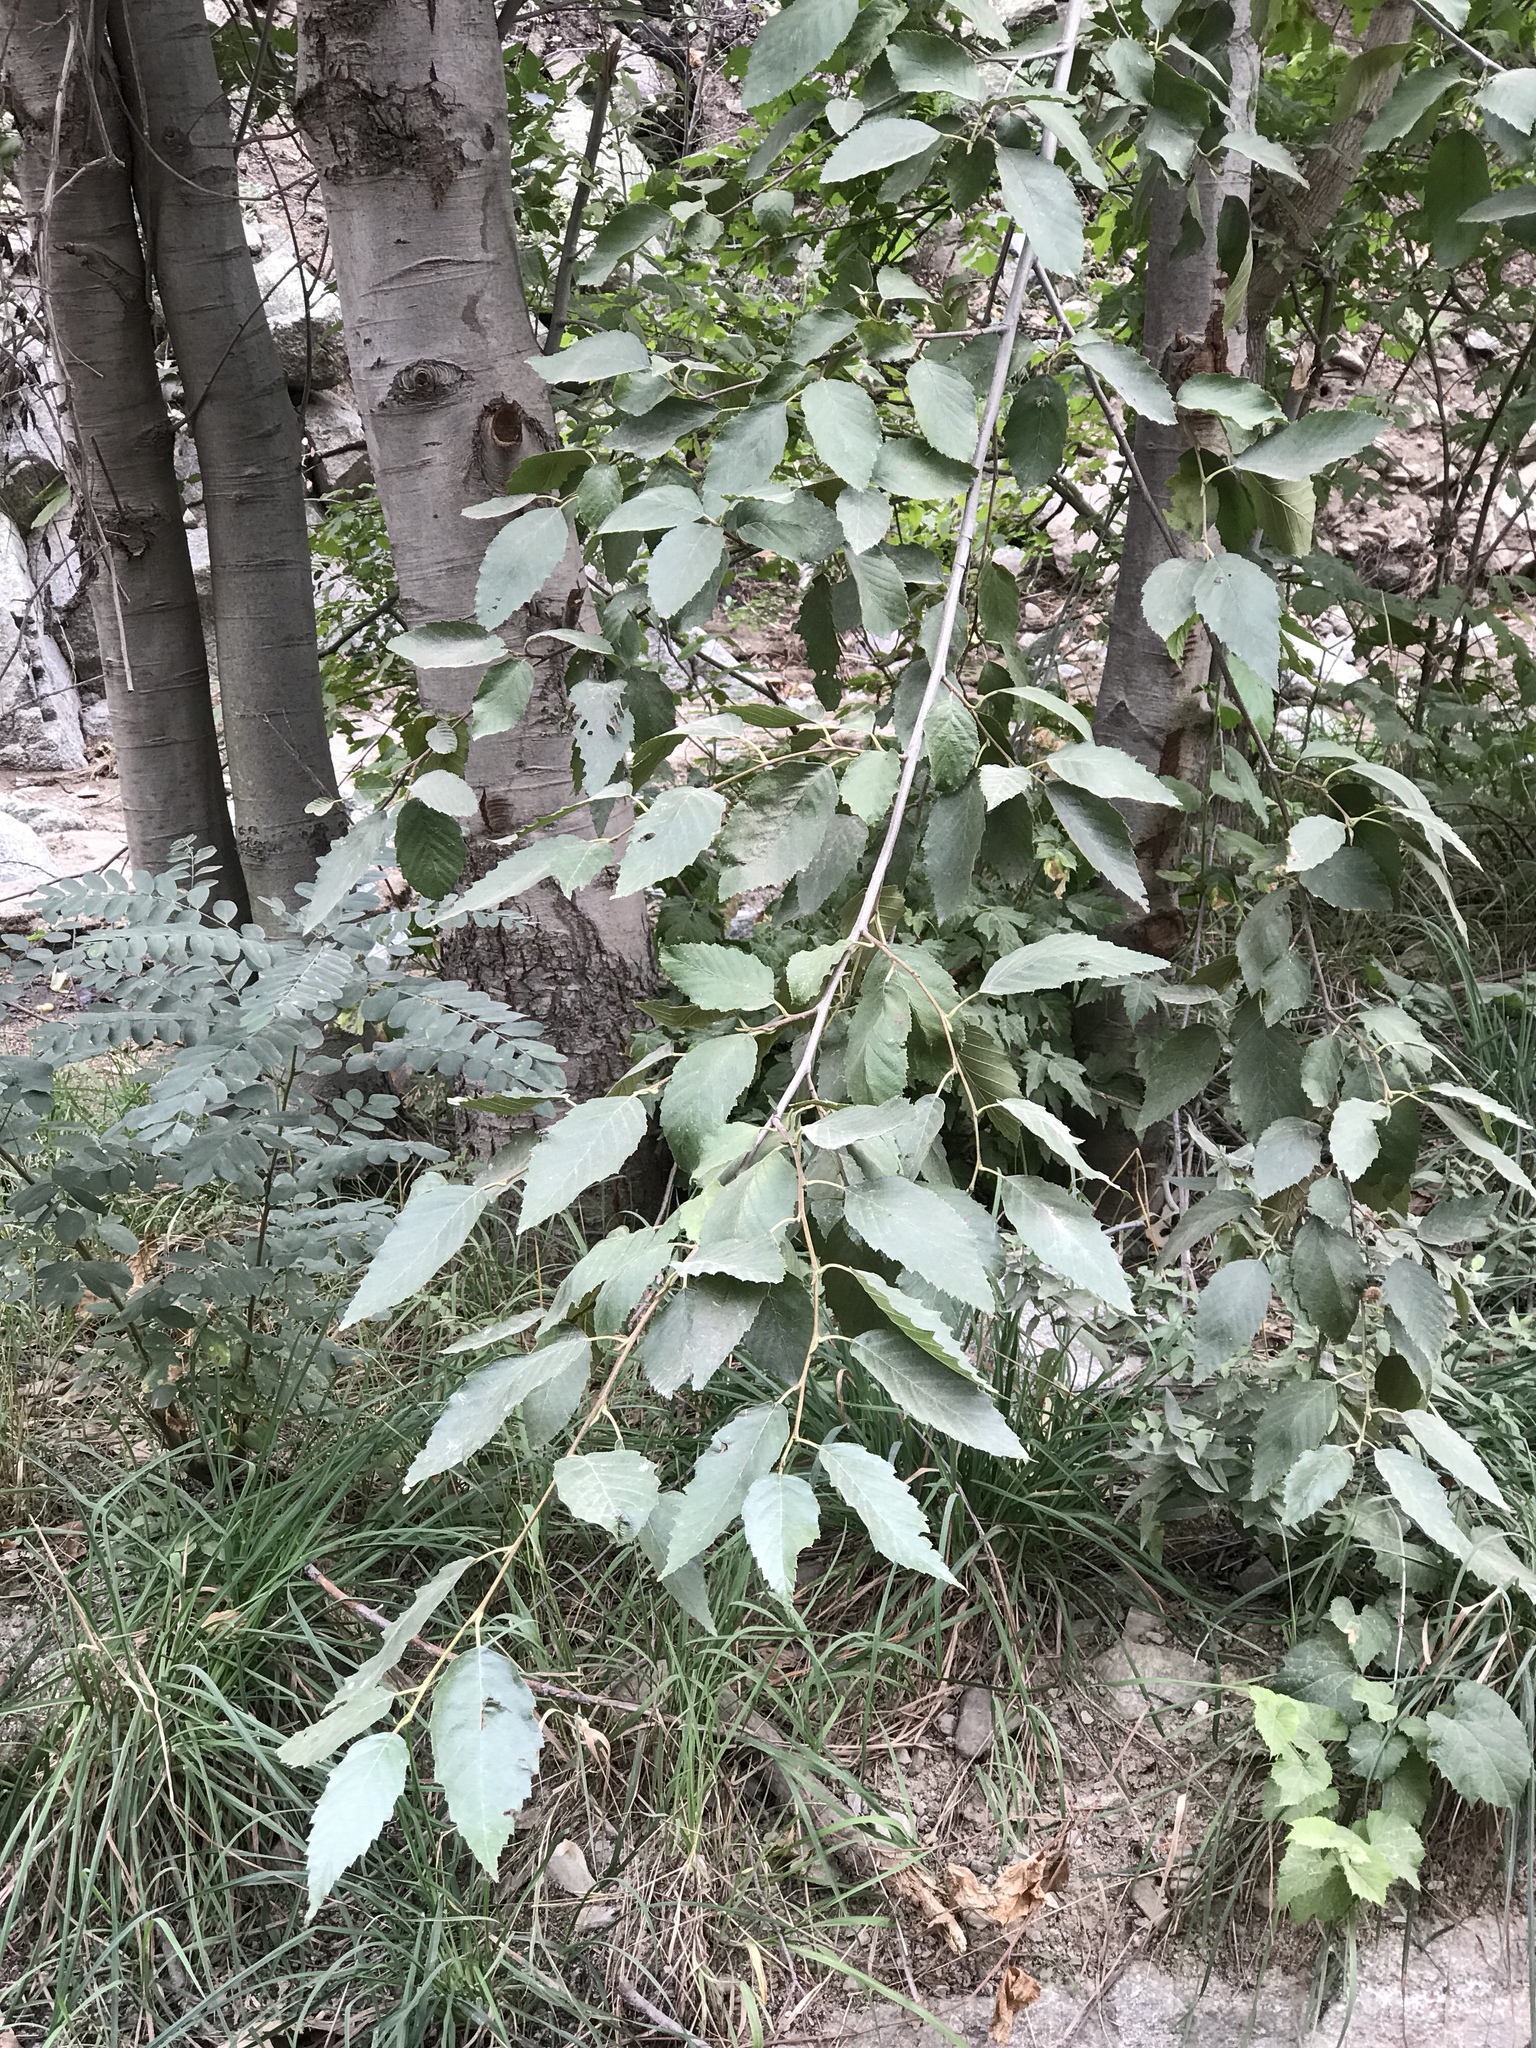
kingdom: Plantae
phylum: Tracheophyta
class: Magnoliopsida
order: Fagales
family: Betulaceae
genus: Alnus
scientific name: Alnus oblongifolia
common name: Arizona alder
